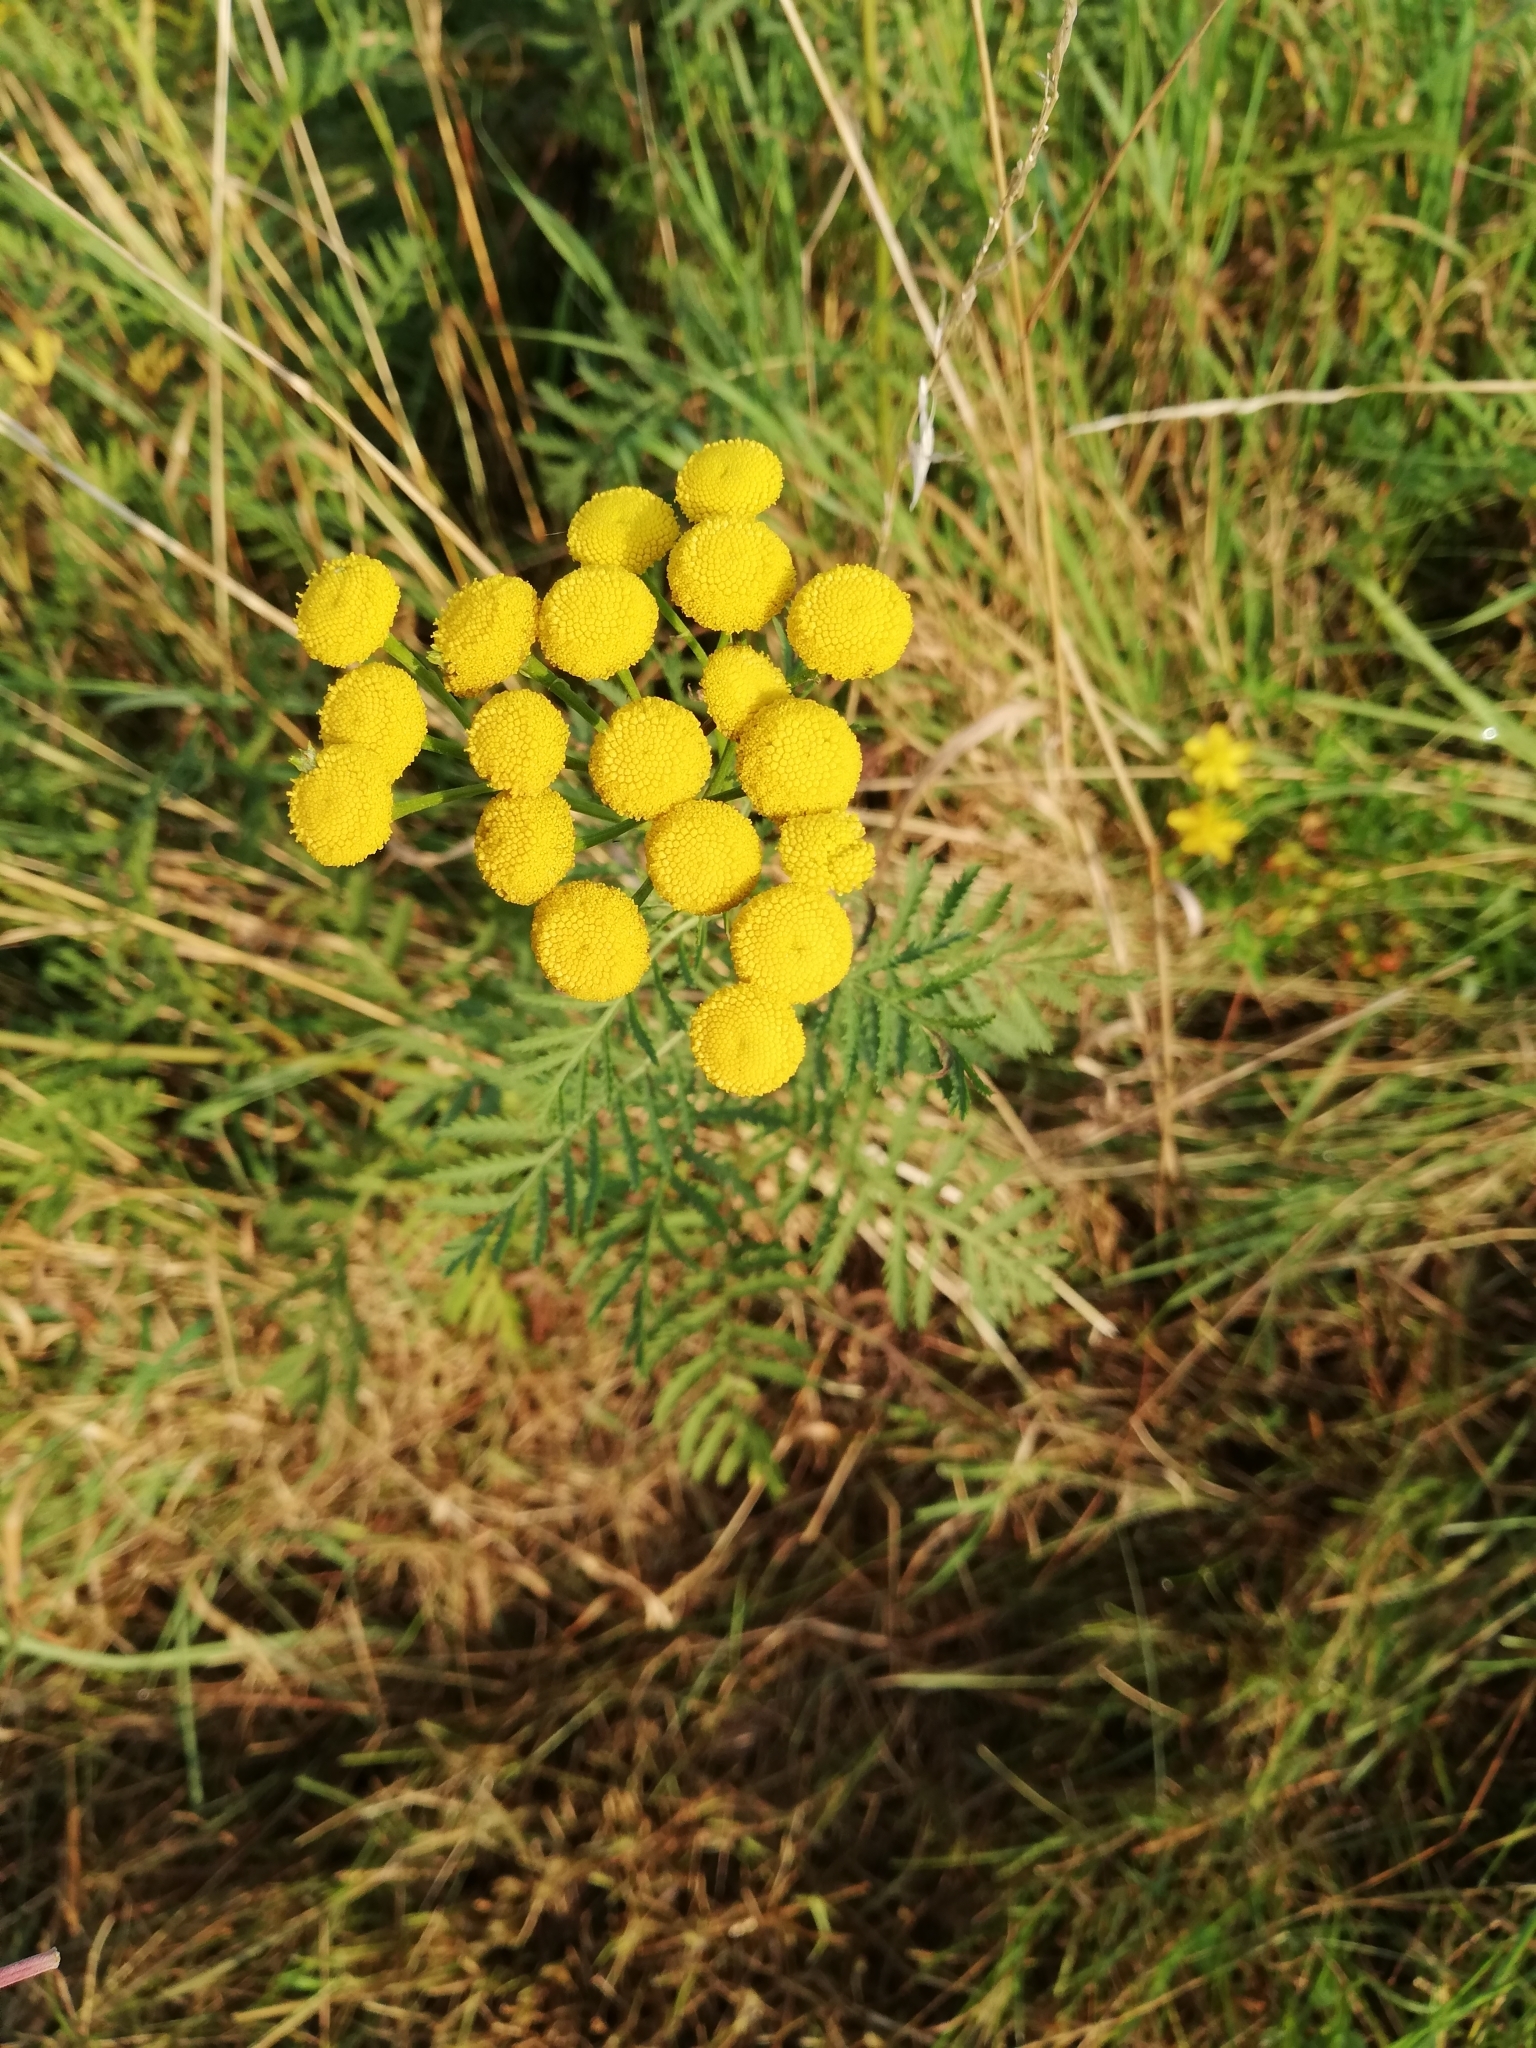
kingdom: Plantae
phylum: Tracheophyta
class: Magnoliopsida
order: Asterales
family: Asteraceae
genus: Tanacetum
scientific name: Tanacetum vulgare
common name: Common tansy
